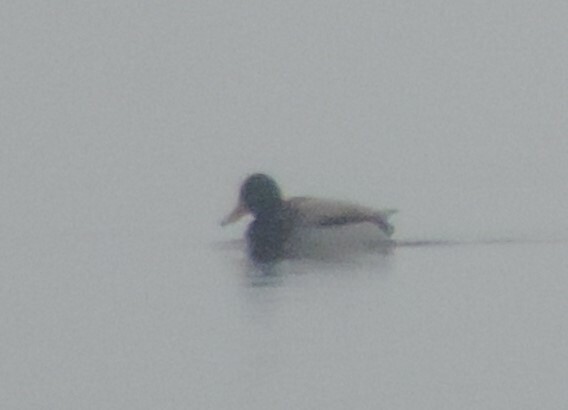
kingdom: Animalia
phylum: Chordata
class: Aves
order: Anseriformes
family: Anatidae
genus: Anas
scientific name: Anas platyrhynchos
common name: Mallard
